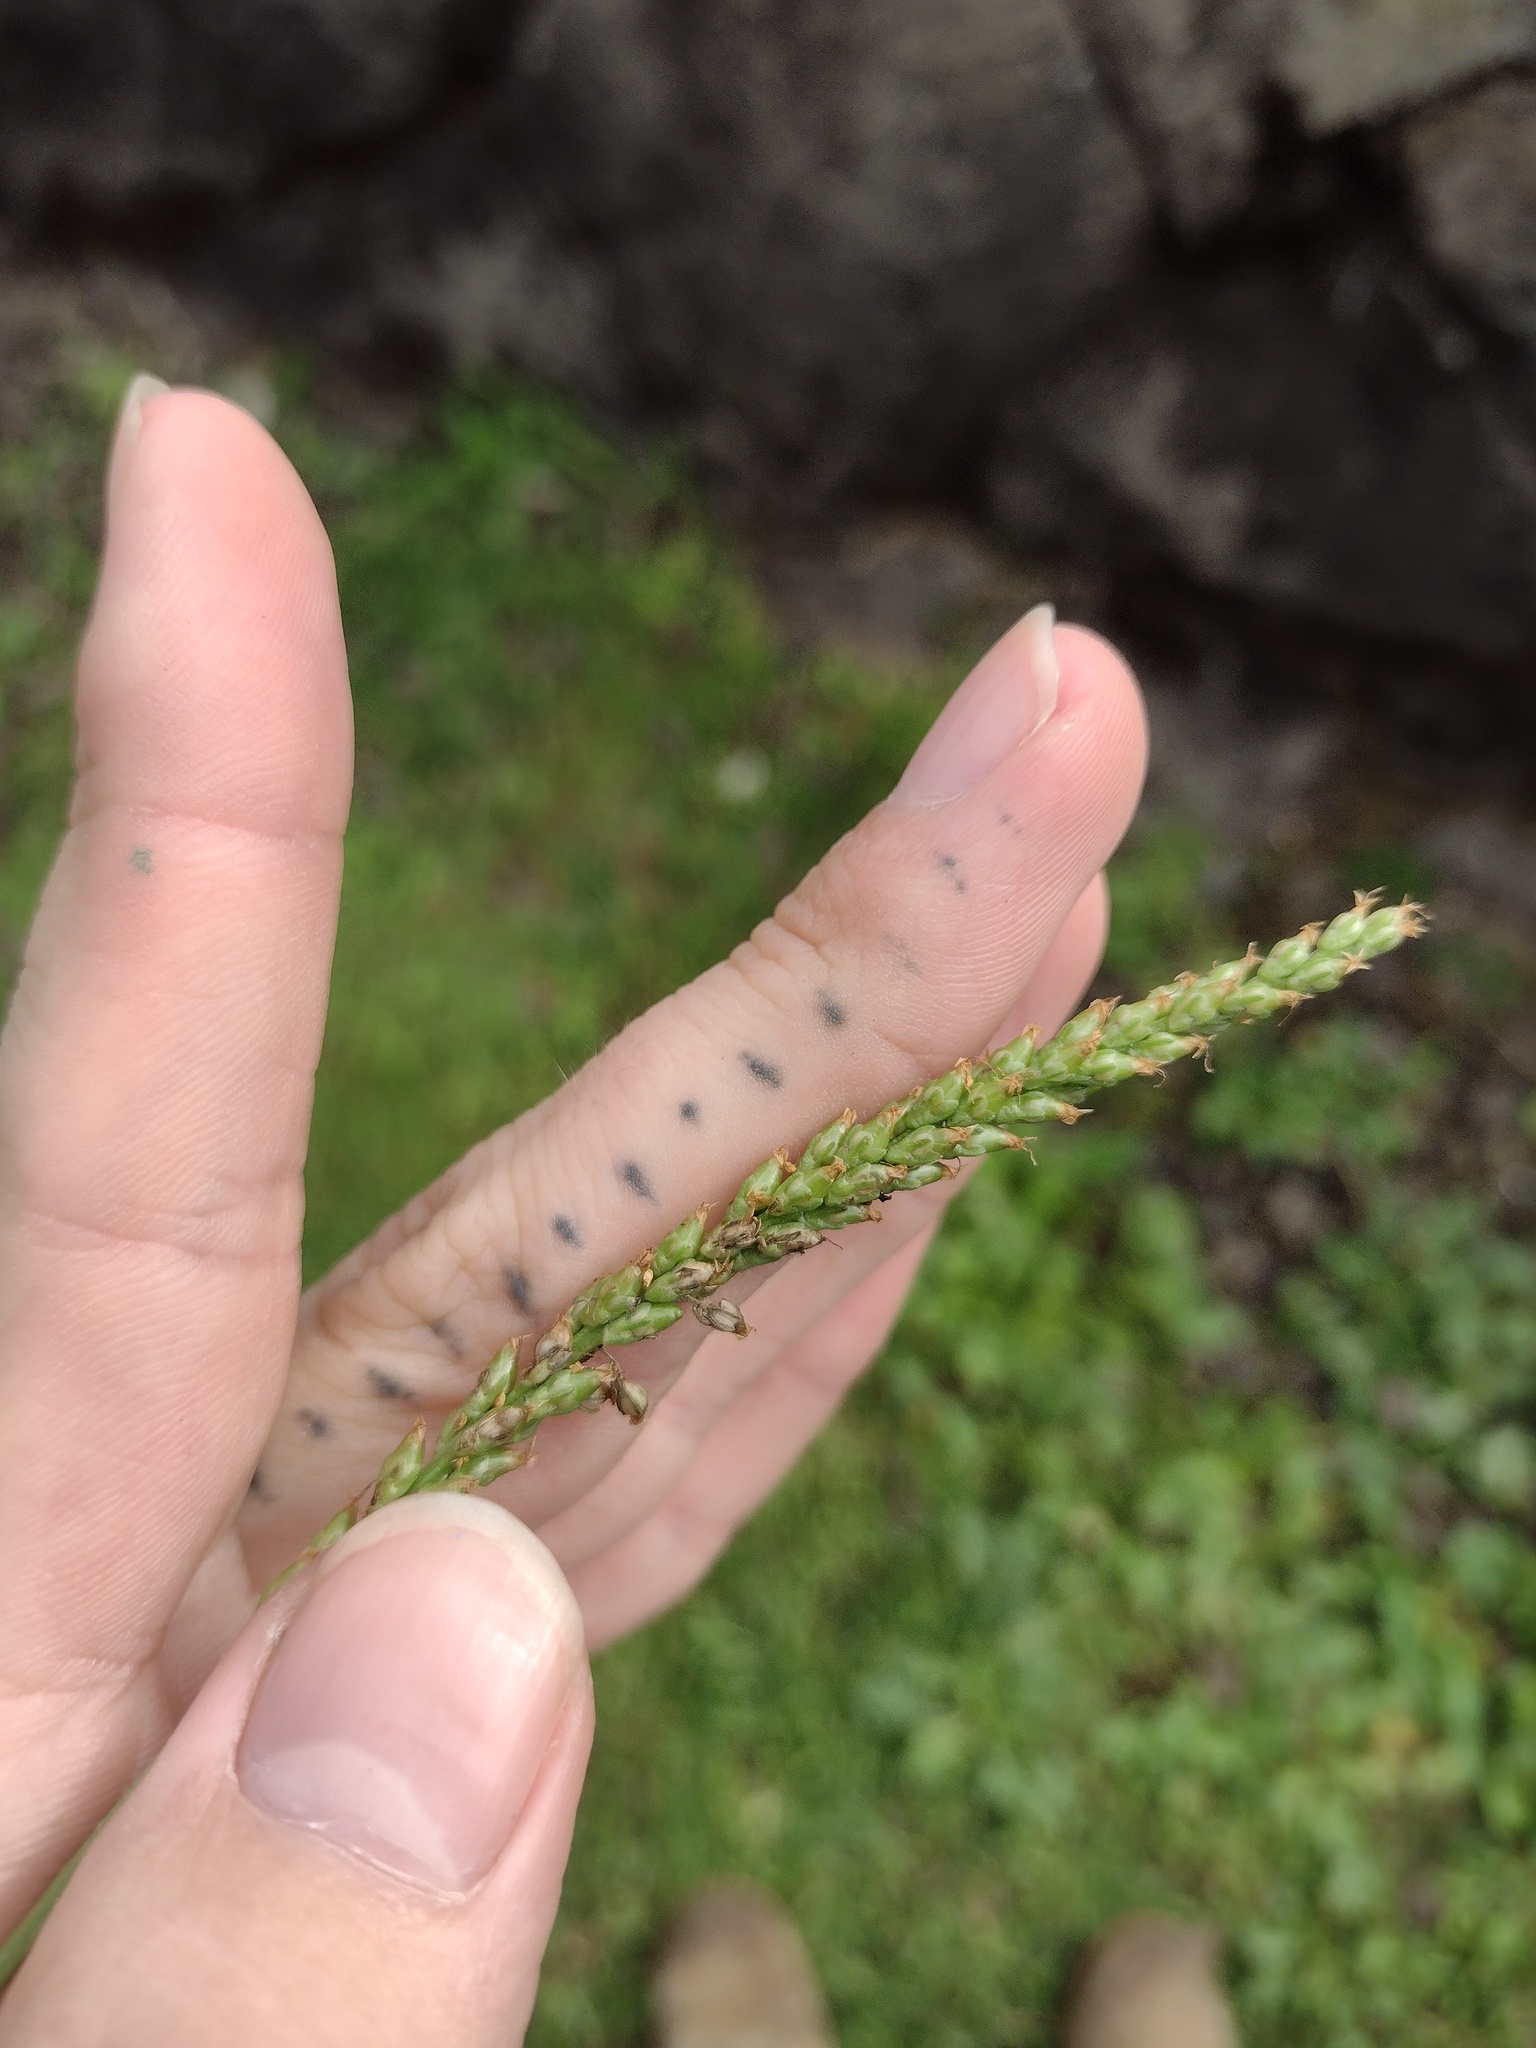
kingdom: Plantae
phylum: Tracheophyta
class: Magnoliopsida
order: Lamiales
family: Plantaginaceae
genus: Plantago
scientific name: Plantago rugelii
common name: American plantain
